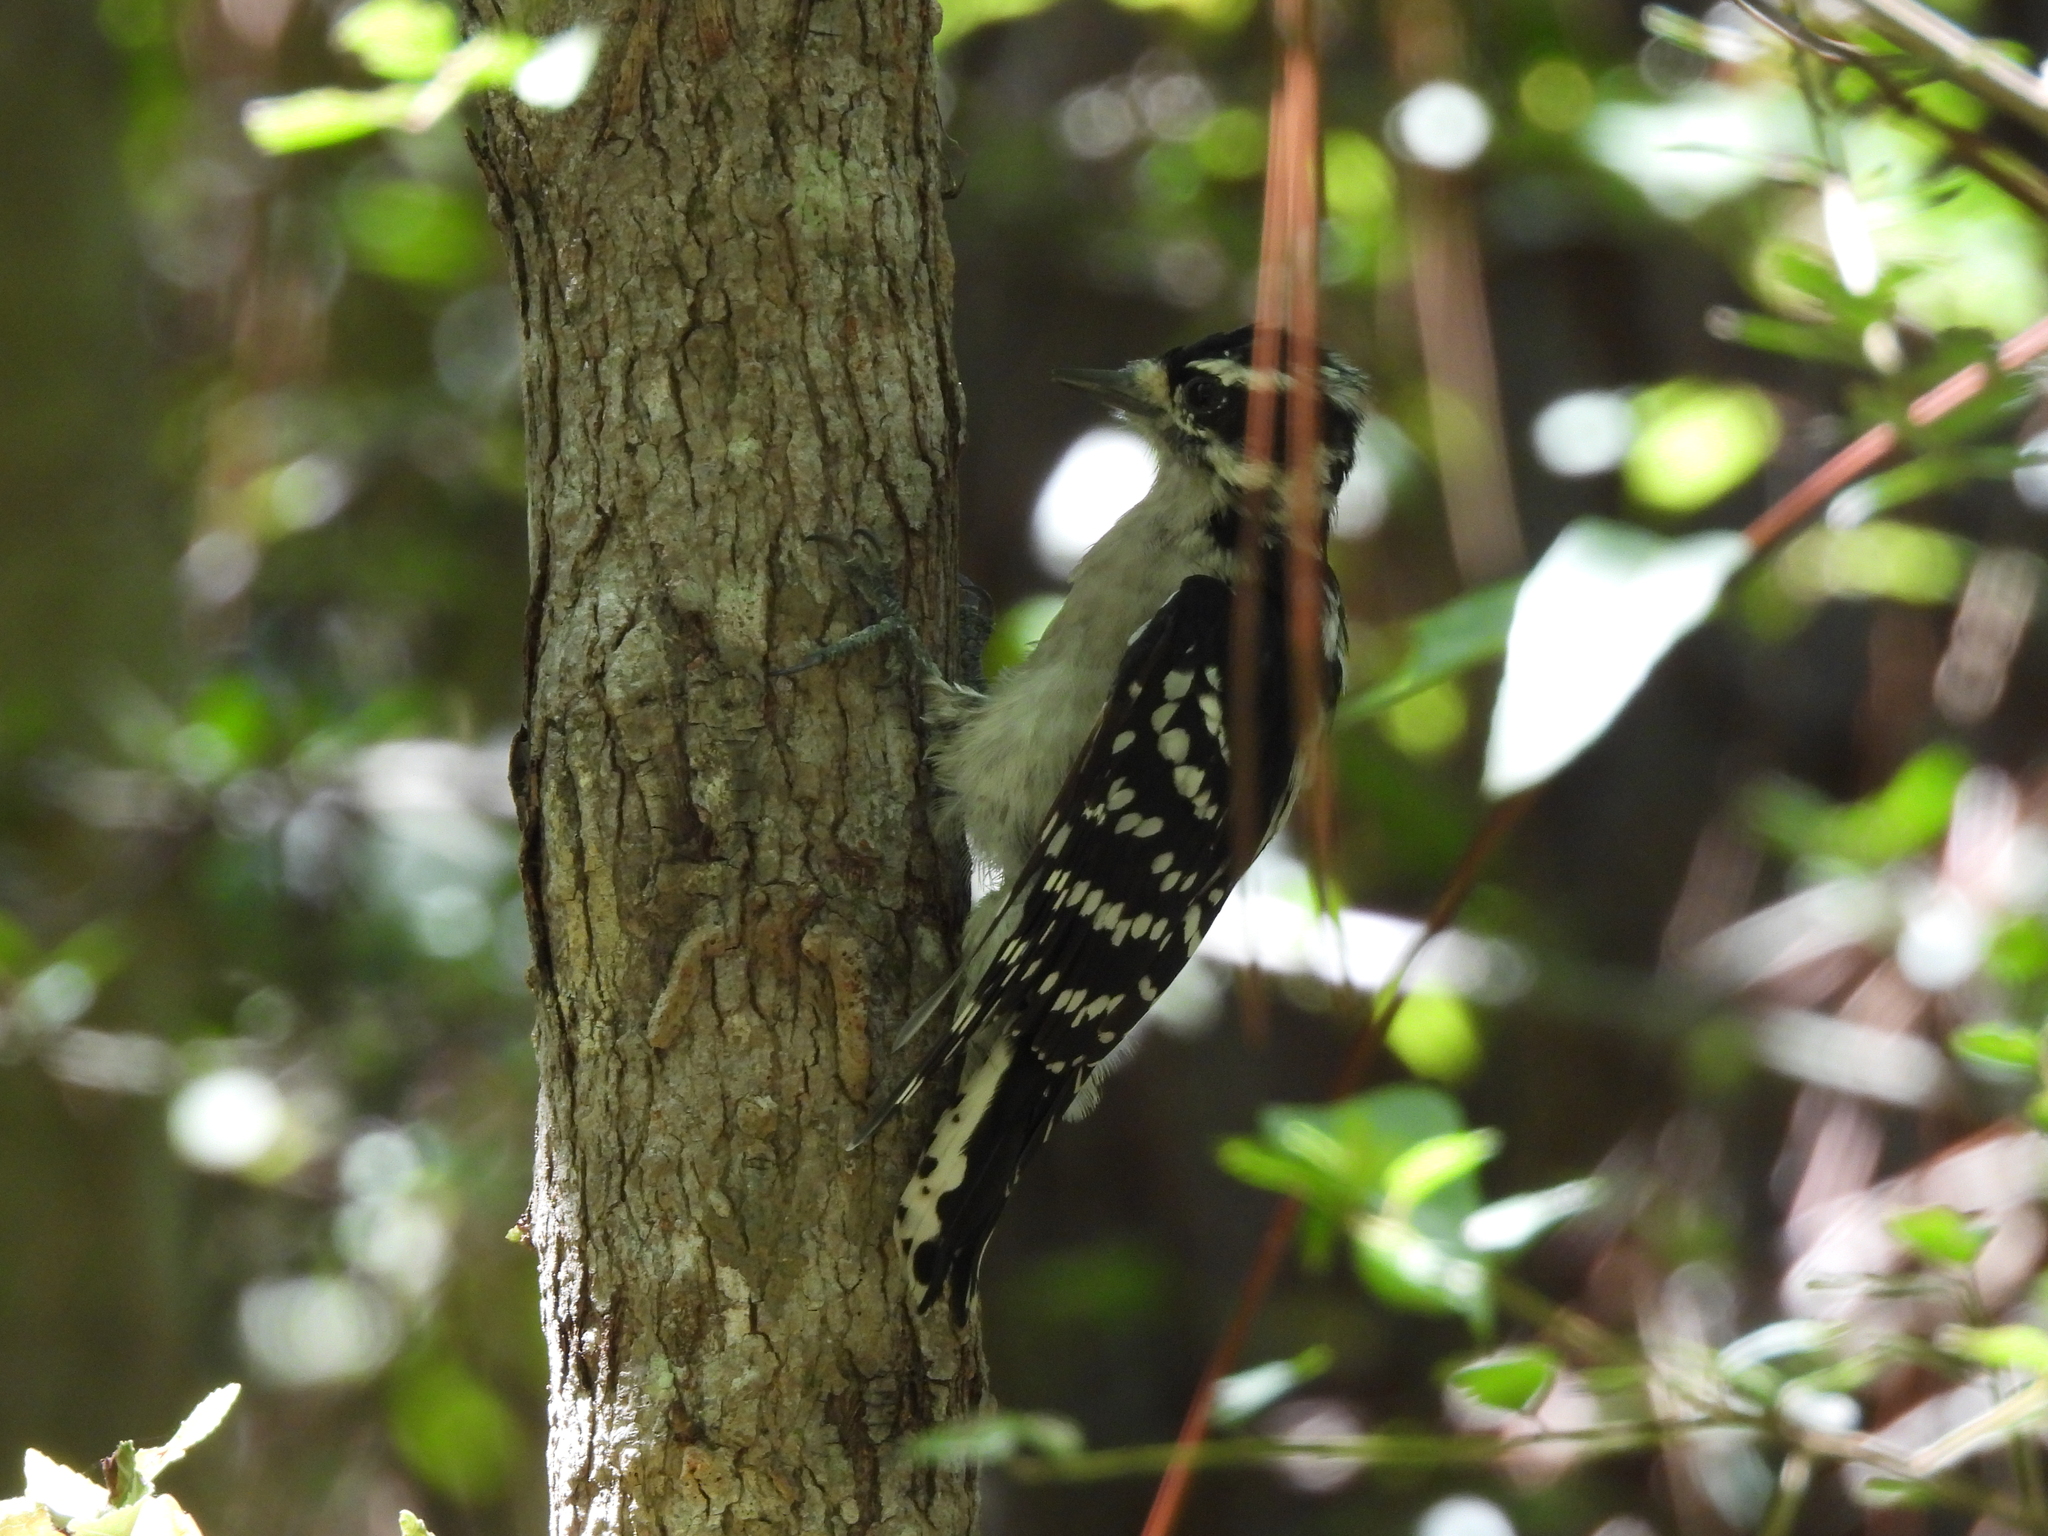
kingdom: Animalia
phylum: Chordata
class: Aves
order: Piciformes
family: Picidae
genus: Dryobates
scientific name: Dryobates pubescens
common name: Downy woodpecker
